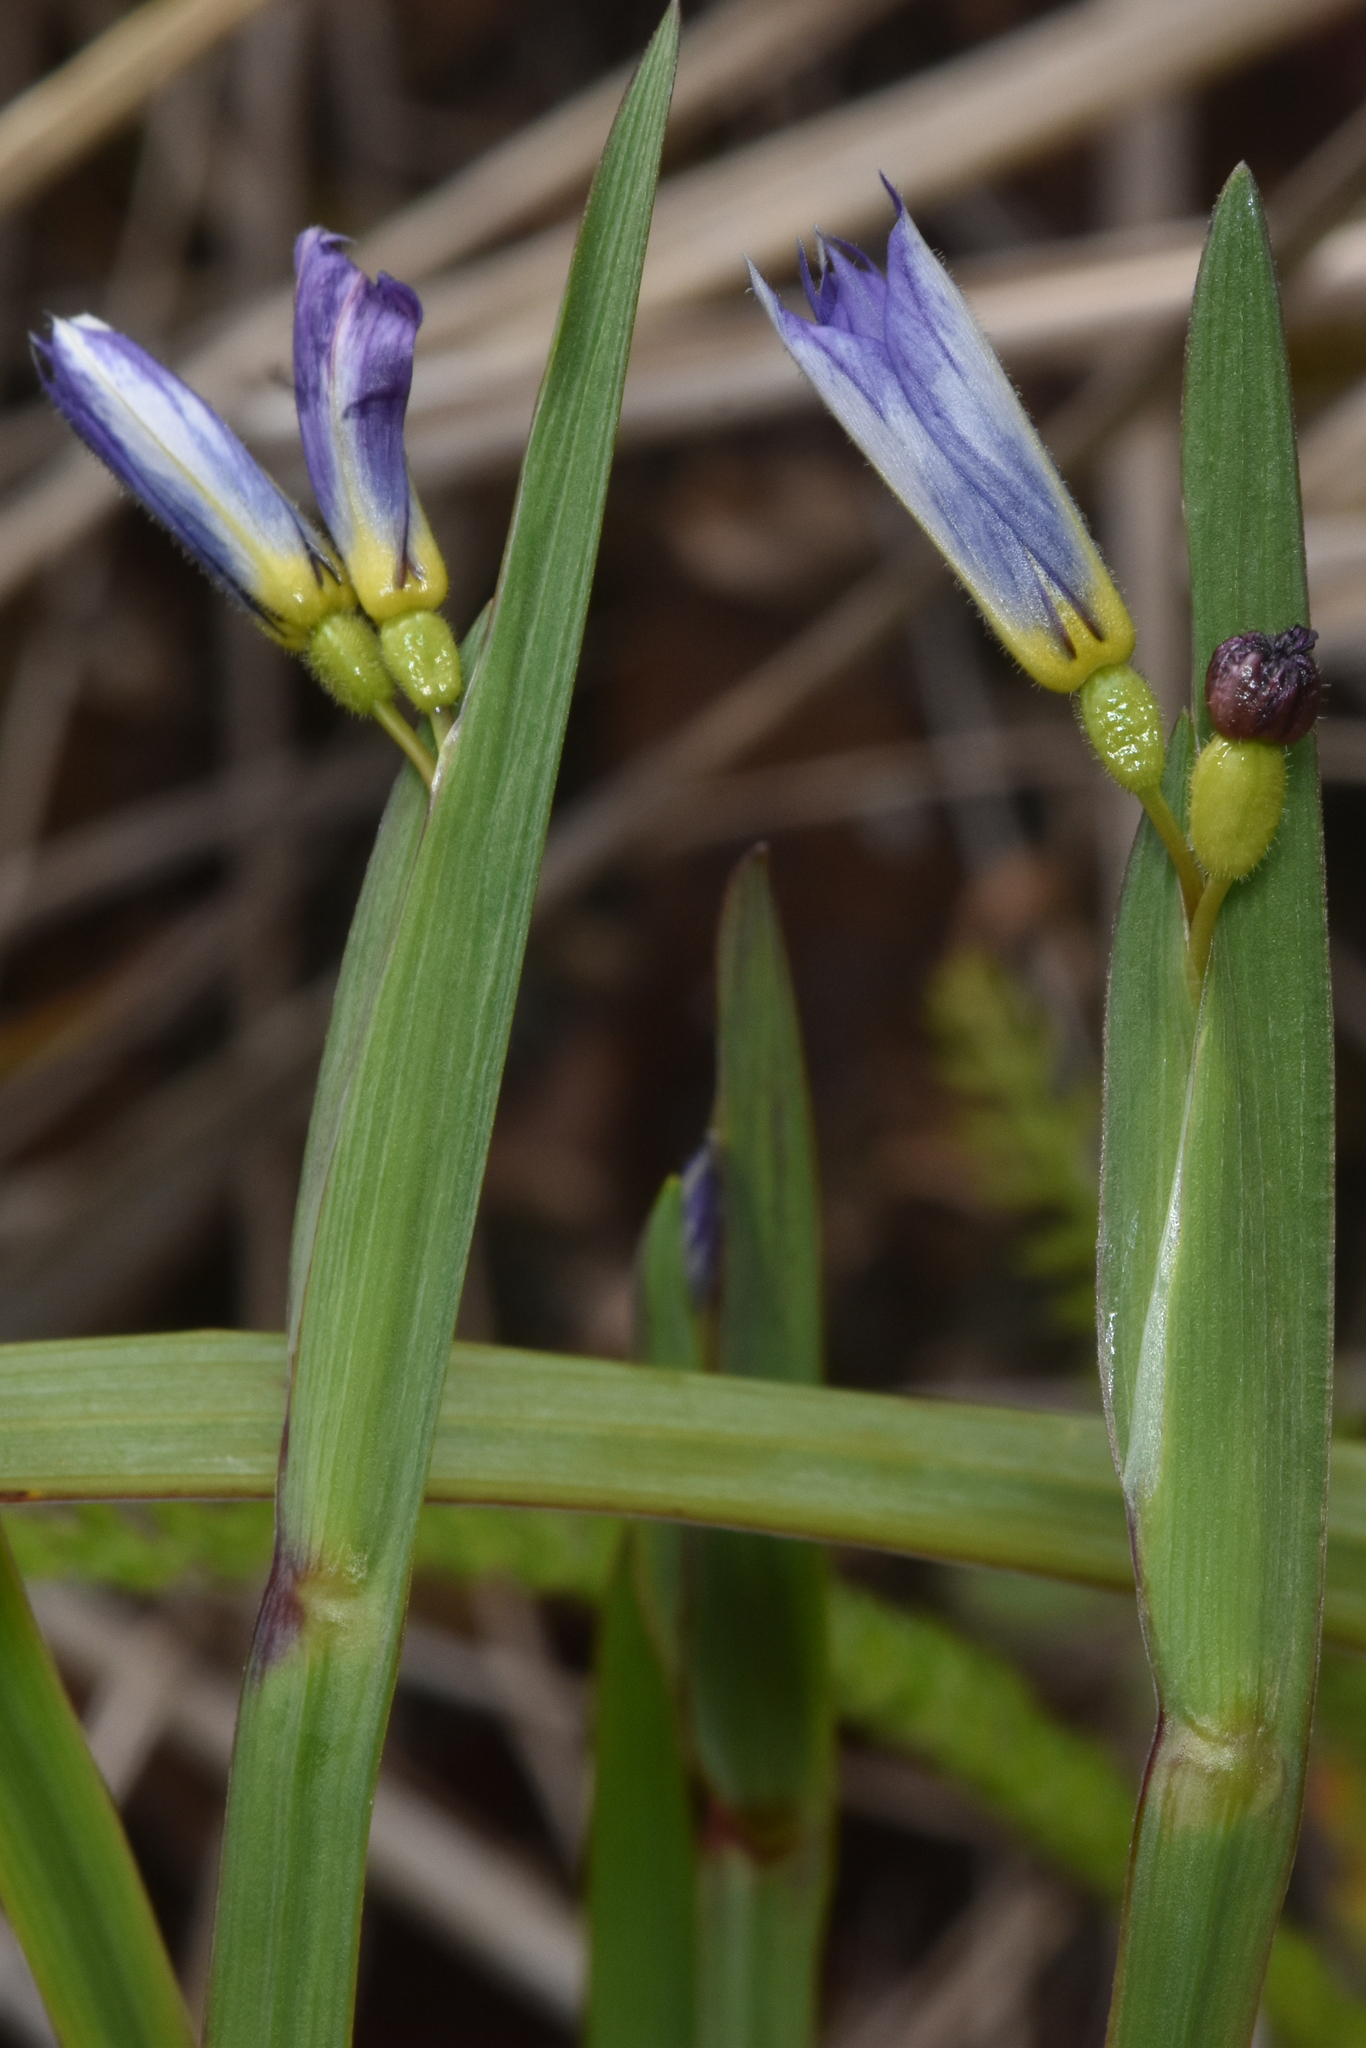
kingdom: Plantae
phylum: Tracheophyta
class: Liliopsida
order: Asparagales
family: Iridaceae
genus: Sisyrinchium
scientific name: Sisyrinchium littorale
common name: Alaska blue-eyed-grass
